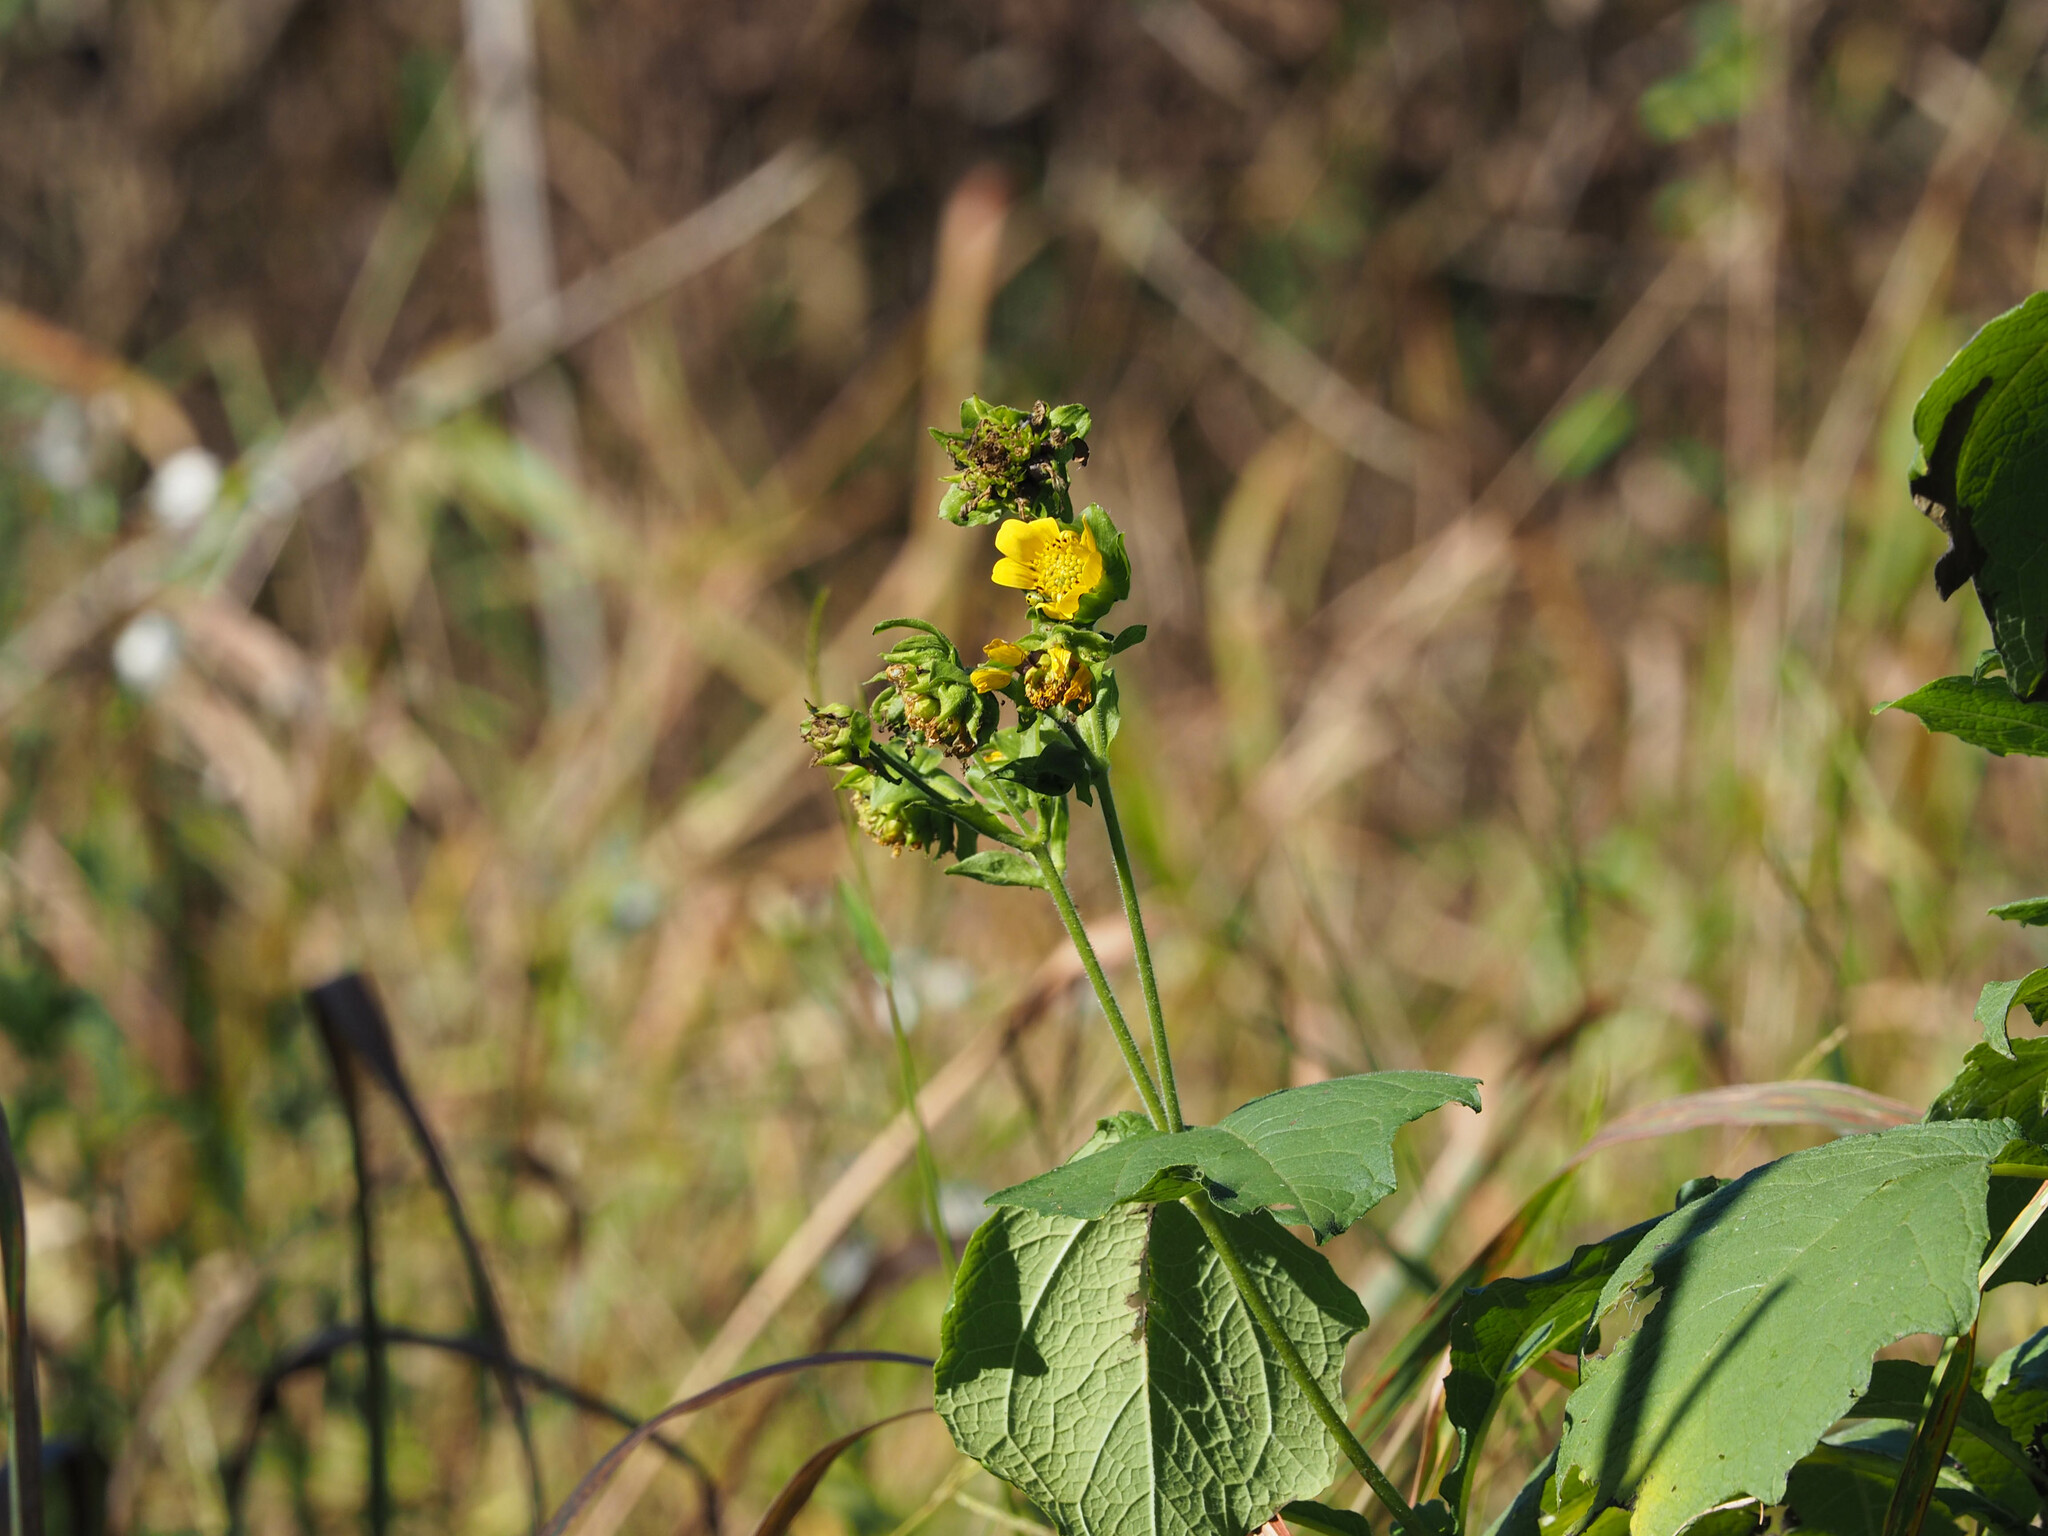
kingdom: Plantae
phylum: Tracheophyta
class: Magnoliopsida
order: Asterales
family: Asteraceae
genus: Smallanthus
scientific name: Smallanthus uvedalia
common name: Bear's-foot
